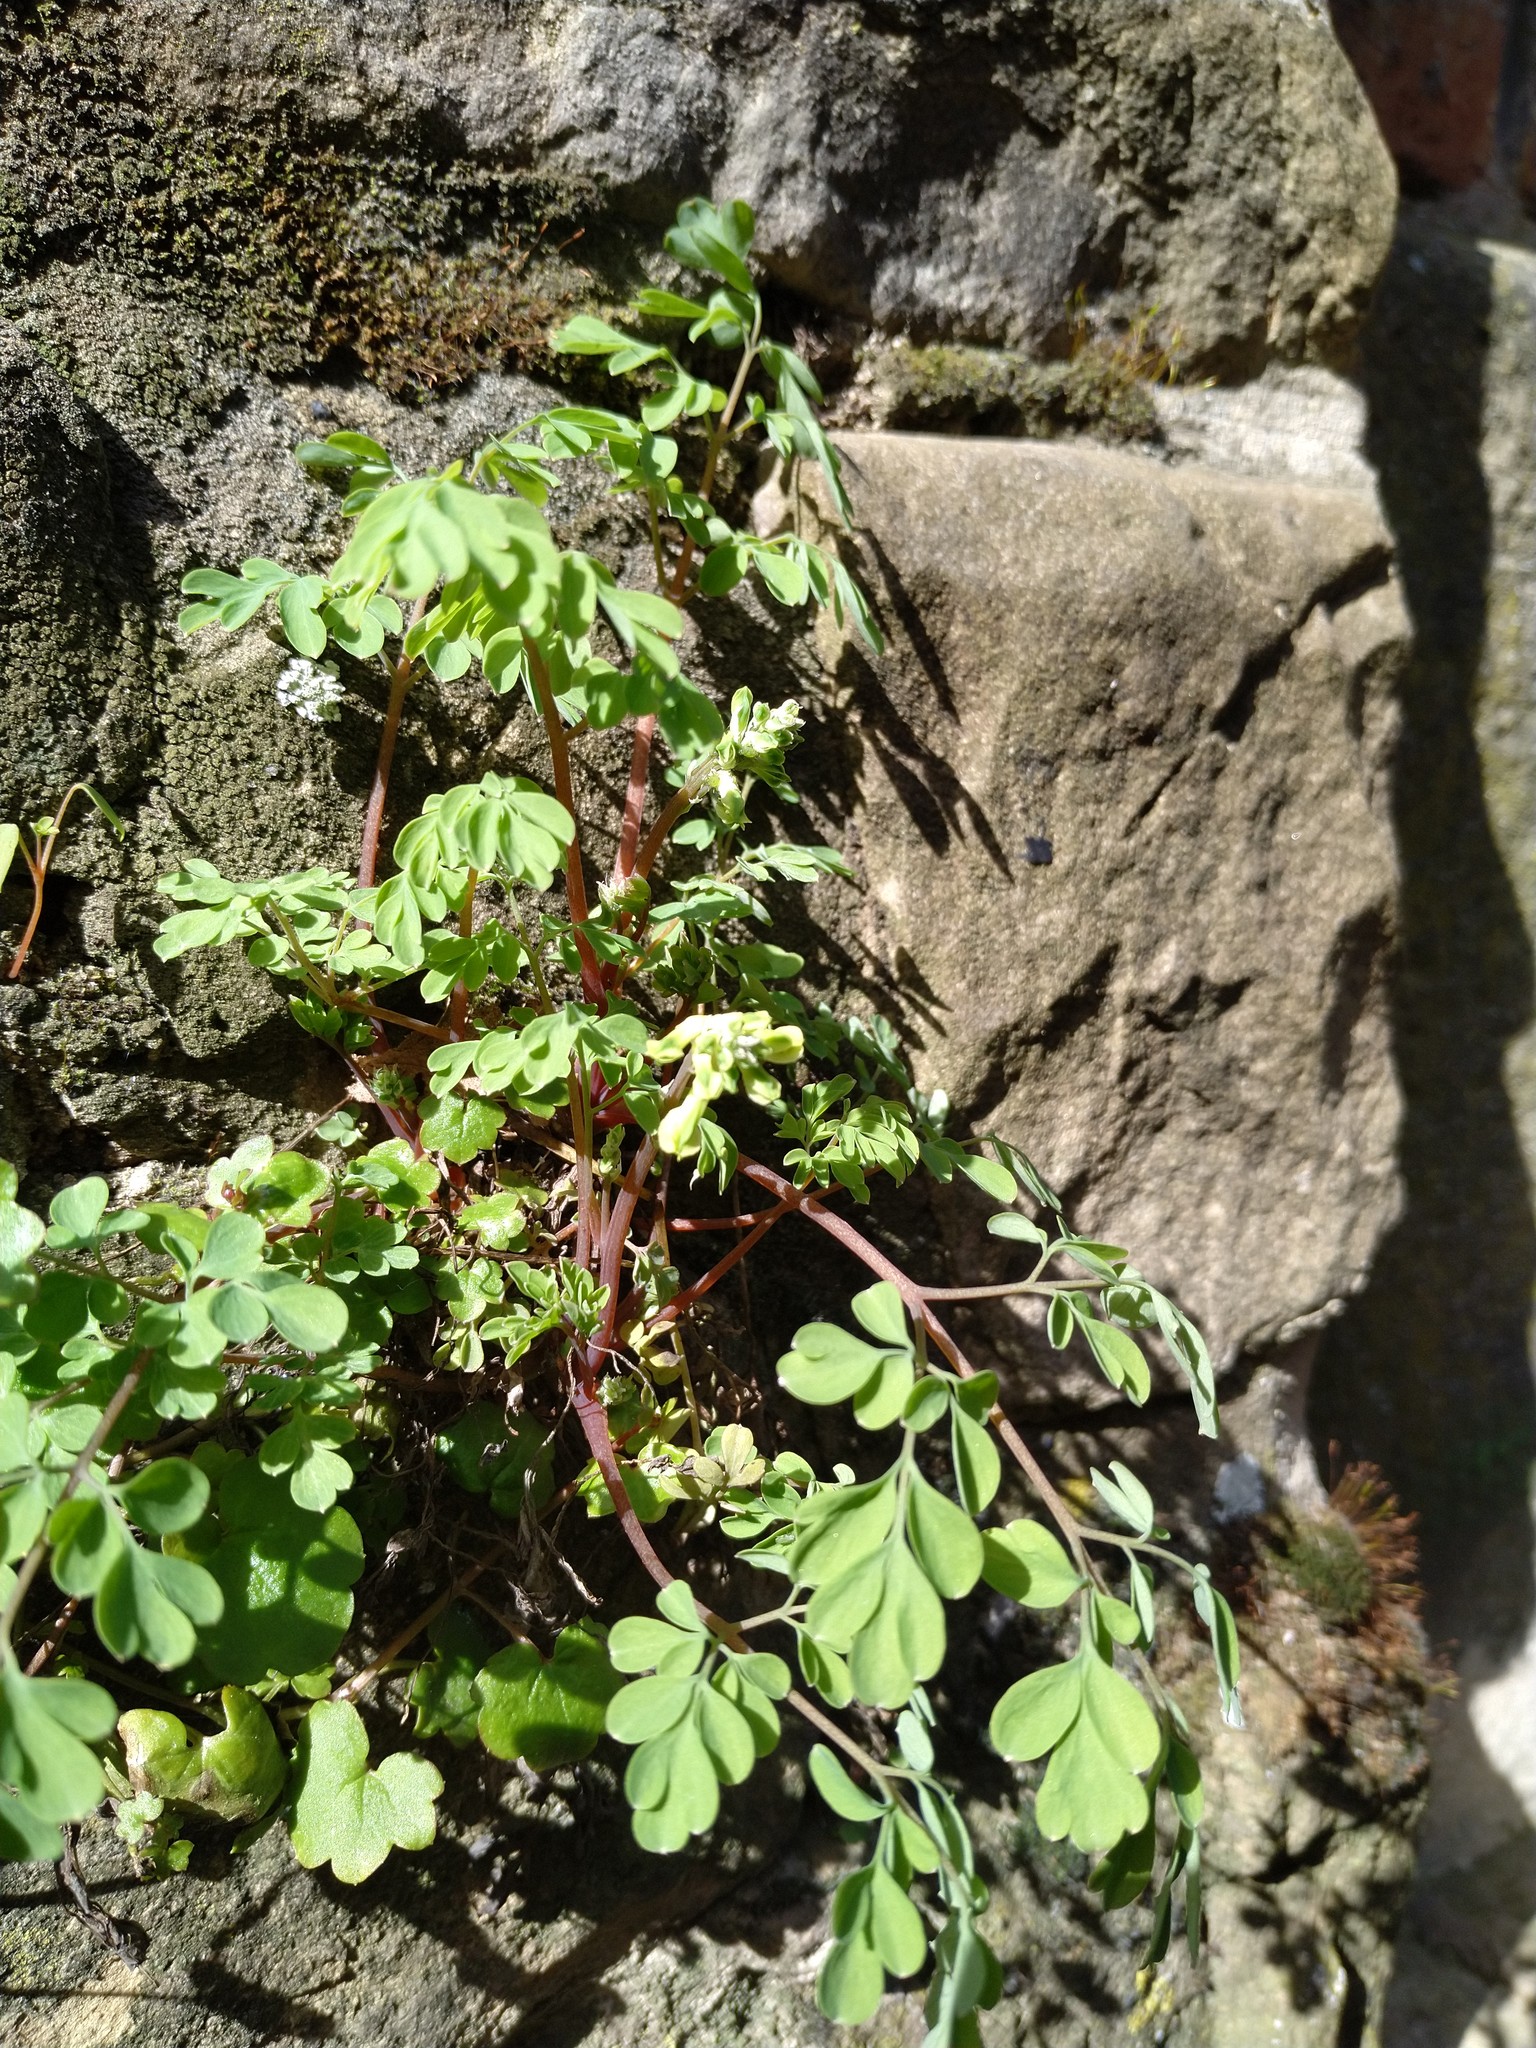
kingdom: Plantae
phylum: Tracheophyta
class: Magnoliopsida
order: Ranunculales
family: Papaveraceae
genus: Pseudofumaria
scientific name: Pseudofumaria lutea
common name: Yellow corydalis
